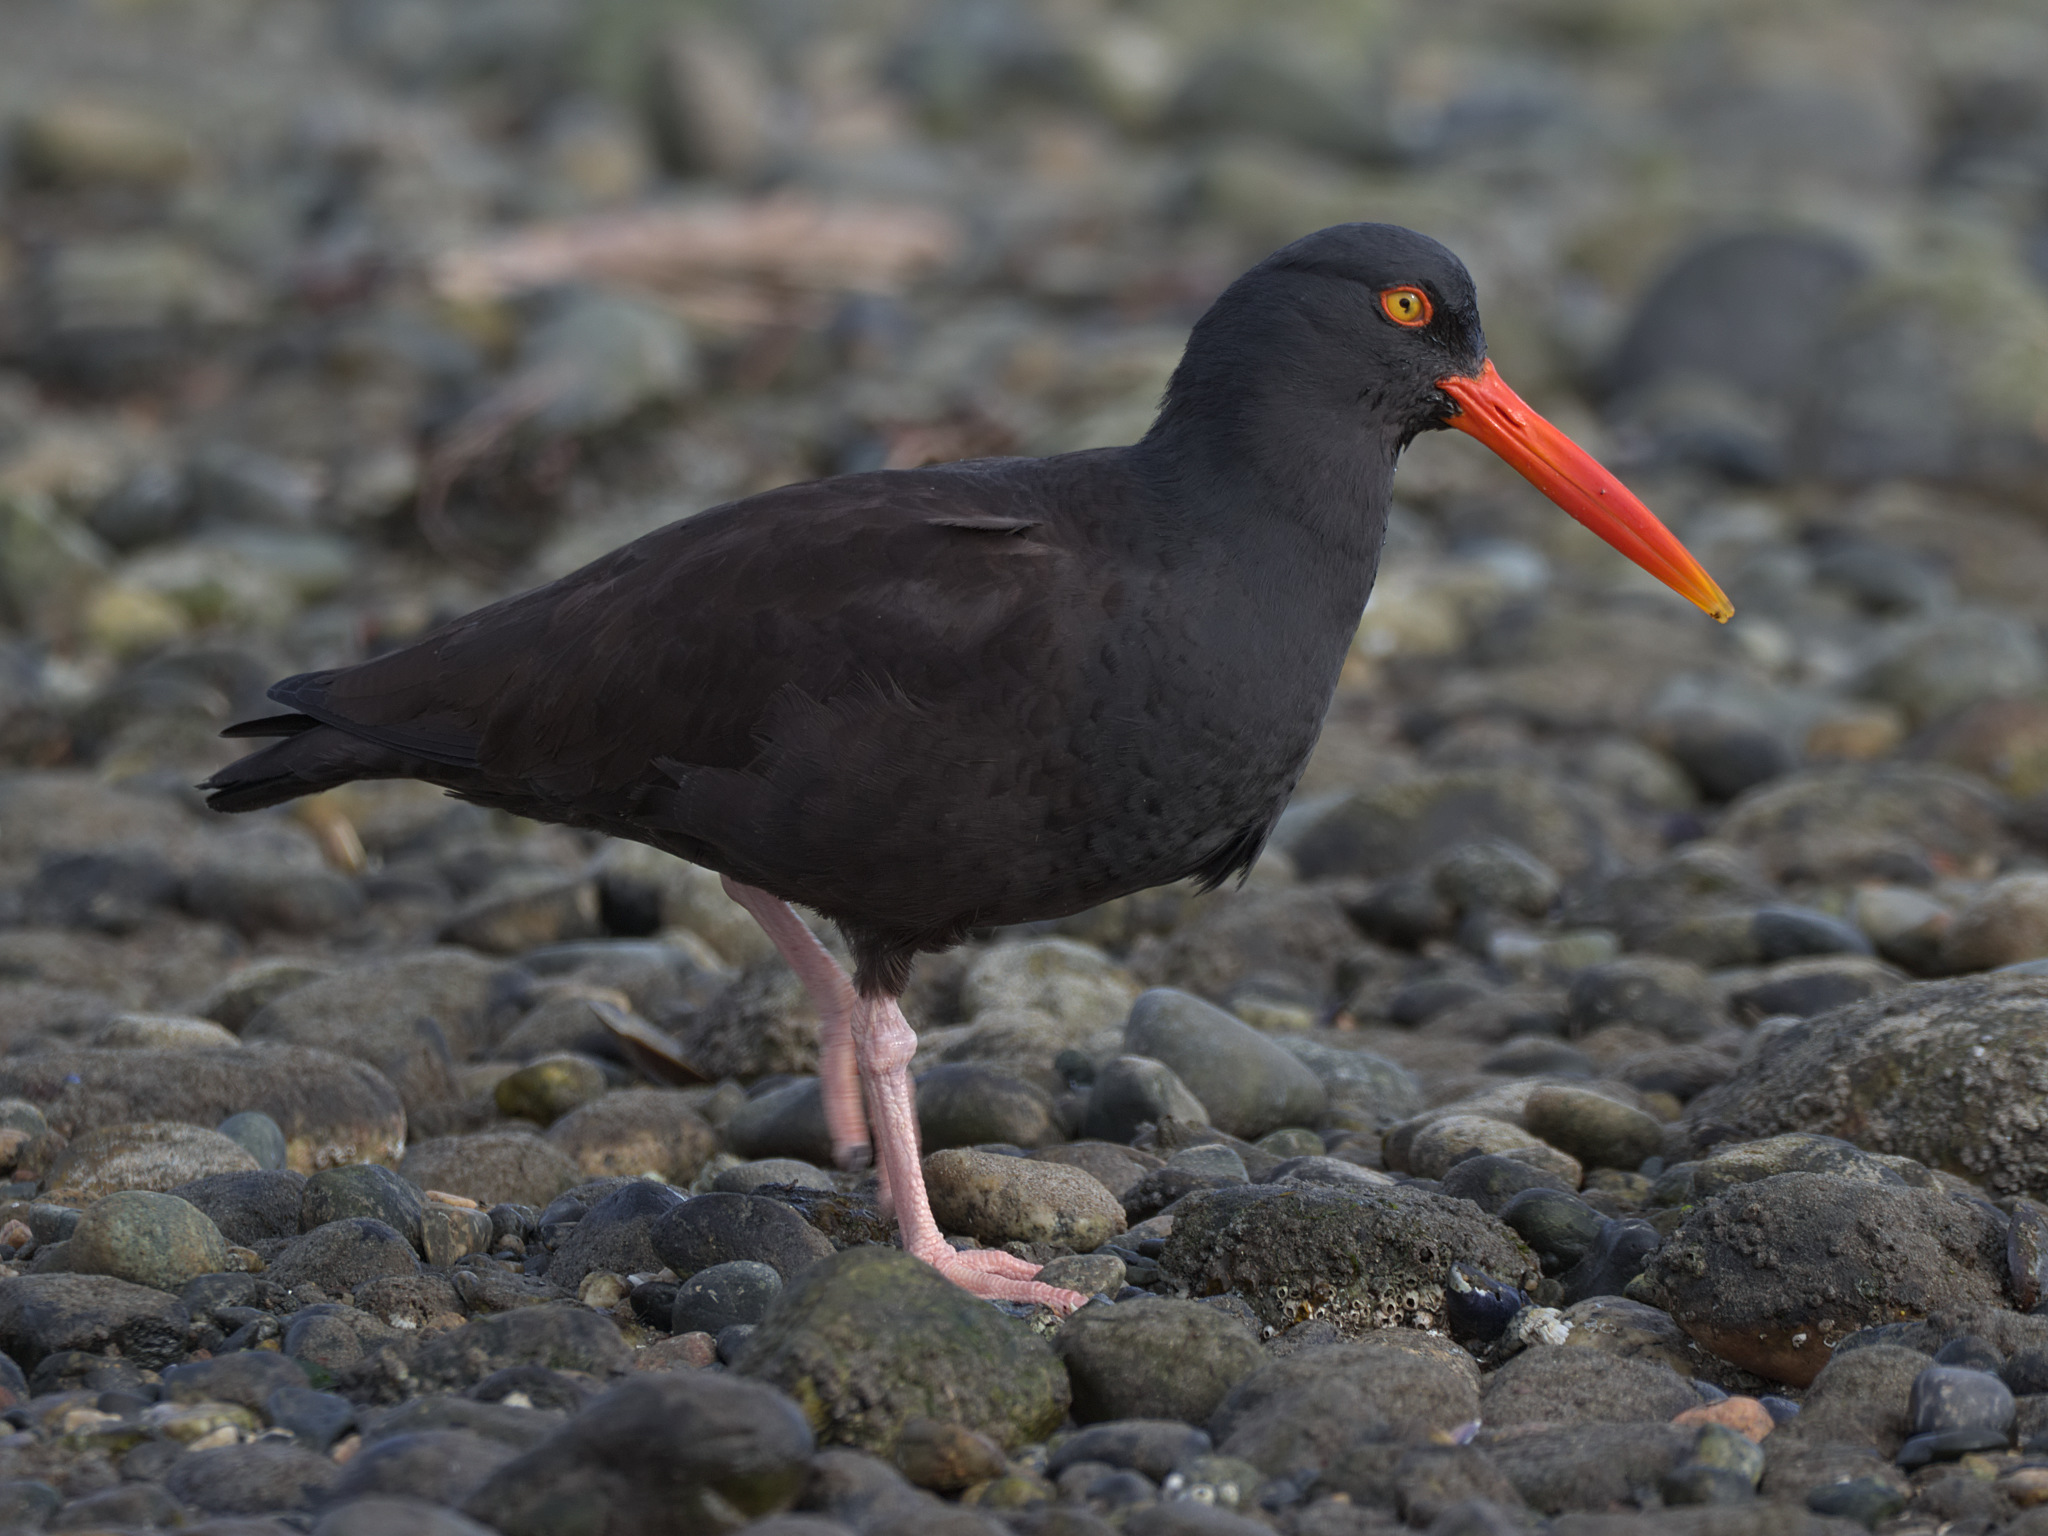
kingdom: Animalia
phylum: Chordata
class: Aves
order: Charadriiformes
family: Haematopodidae
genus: Haematopus
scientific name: Haematopus bachmani
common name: Black oystercatcher
